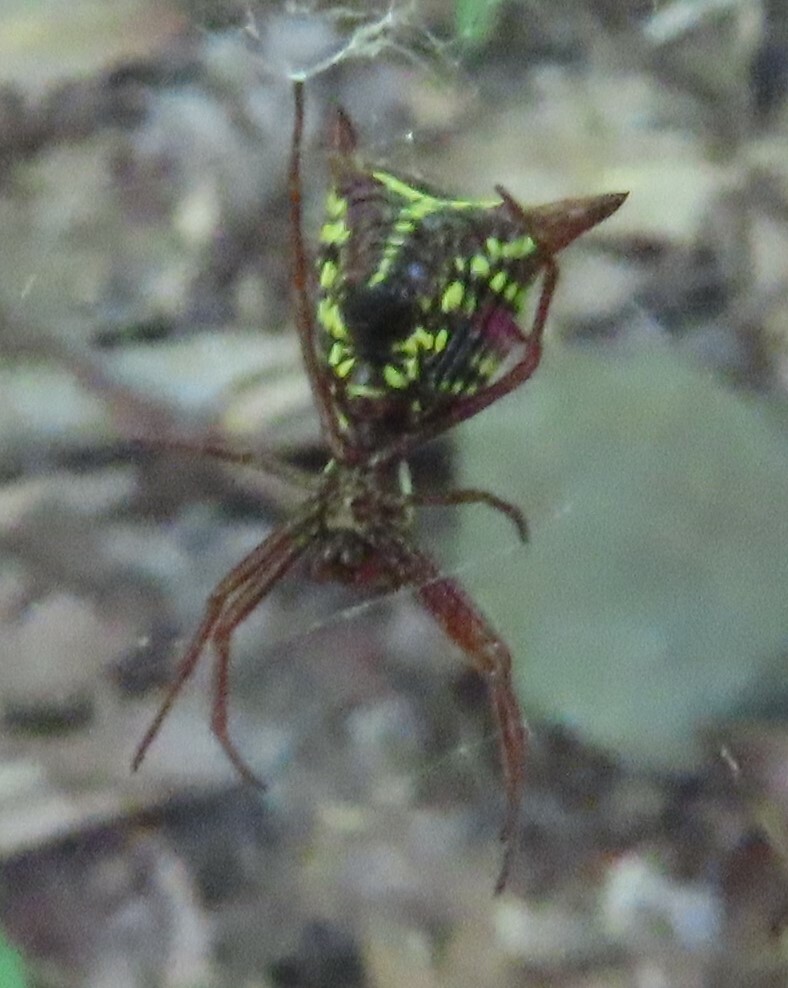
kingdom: Animalia
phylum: Arthropoda
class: Arachnida
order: Araneae
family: Araneidae
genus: Micrathena
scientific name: Micrathena sagittata
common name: Orb weavers
